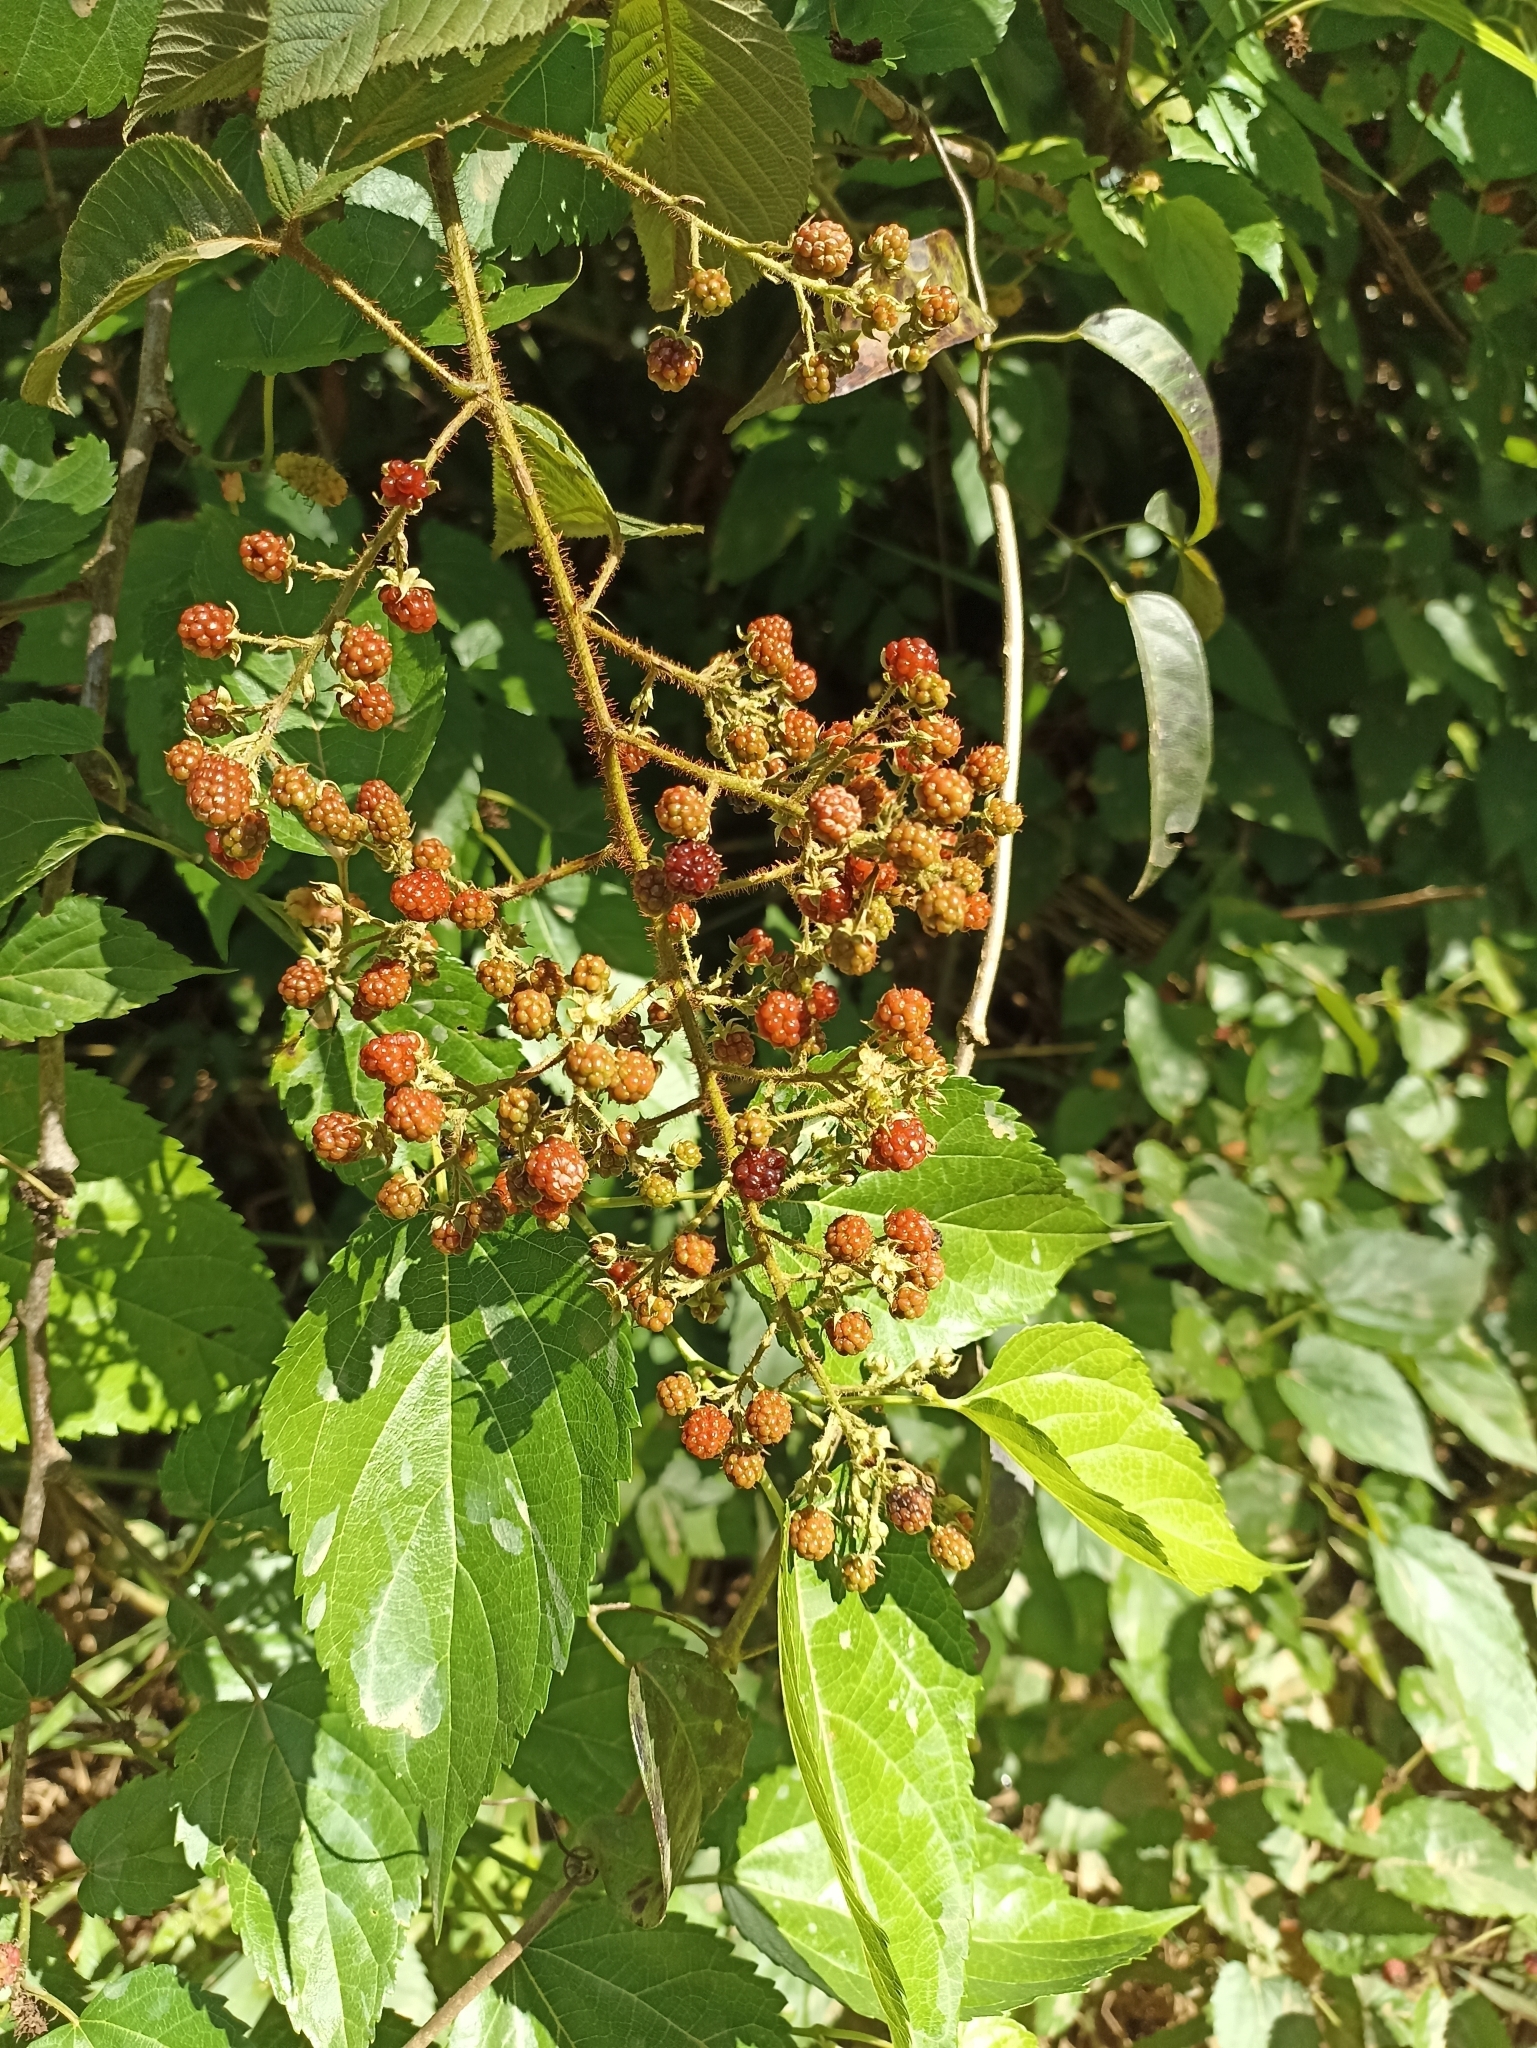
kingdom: Plantae
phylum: Tracheophyta
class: Magnoliopsida
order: Rosales
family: Rosaceae
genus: Rubus
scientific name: Rubus urticifolius
